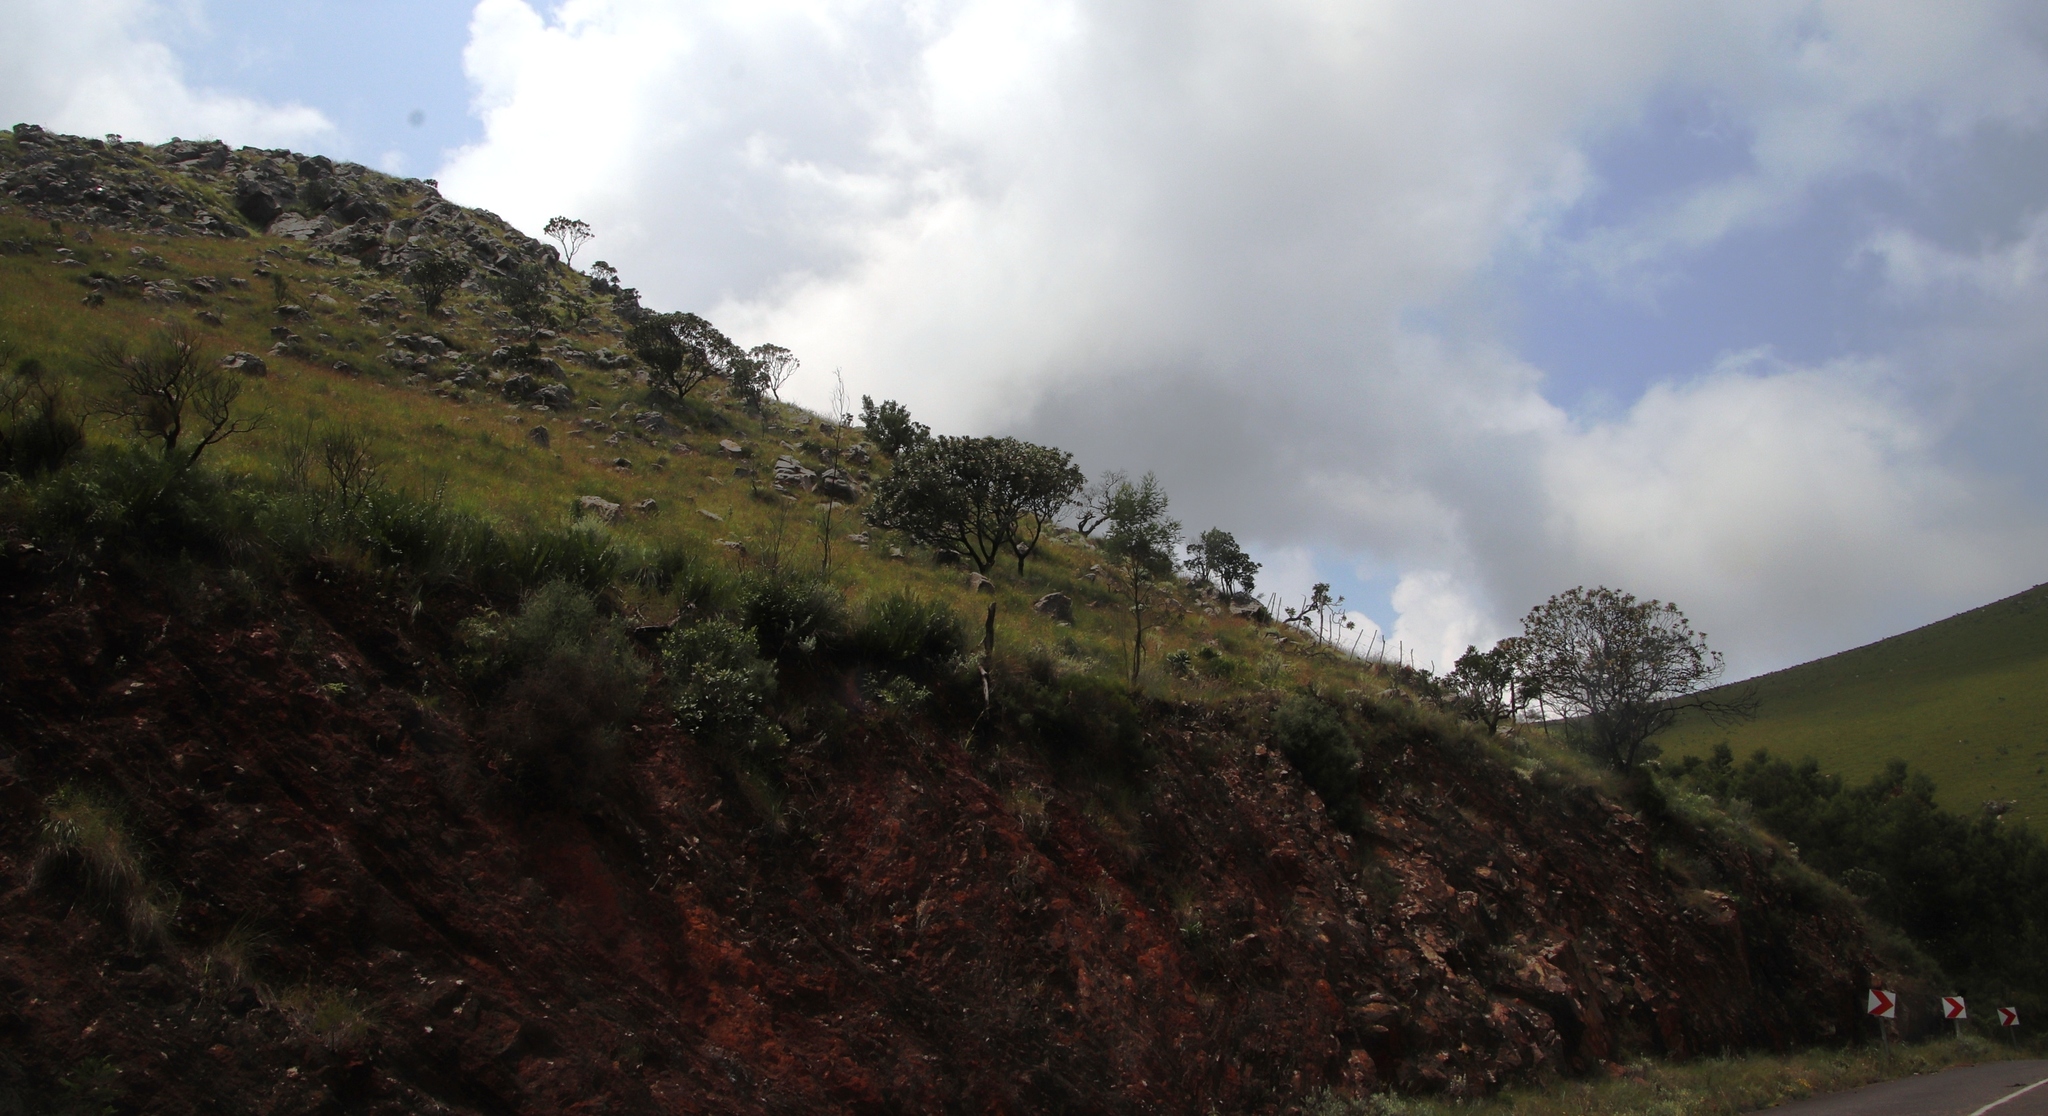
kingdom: Plantae
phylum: Tracheophyta
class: Magnoliopsida
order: Proteales
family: Proteaceae
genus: Protea
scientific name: Protea roupelliae
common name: Silver sugarbush
